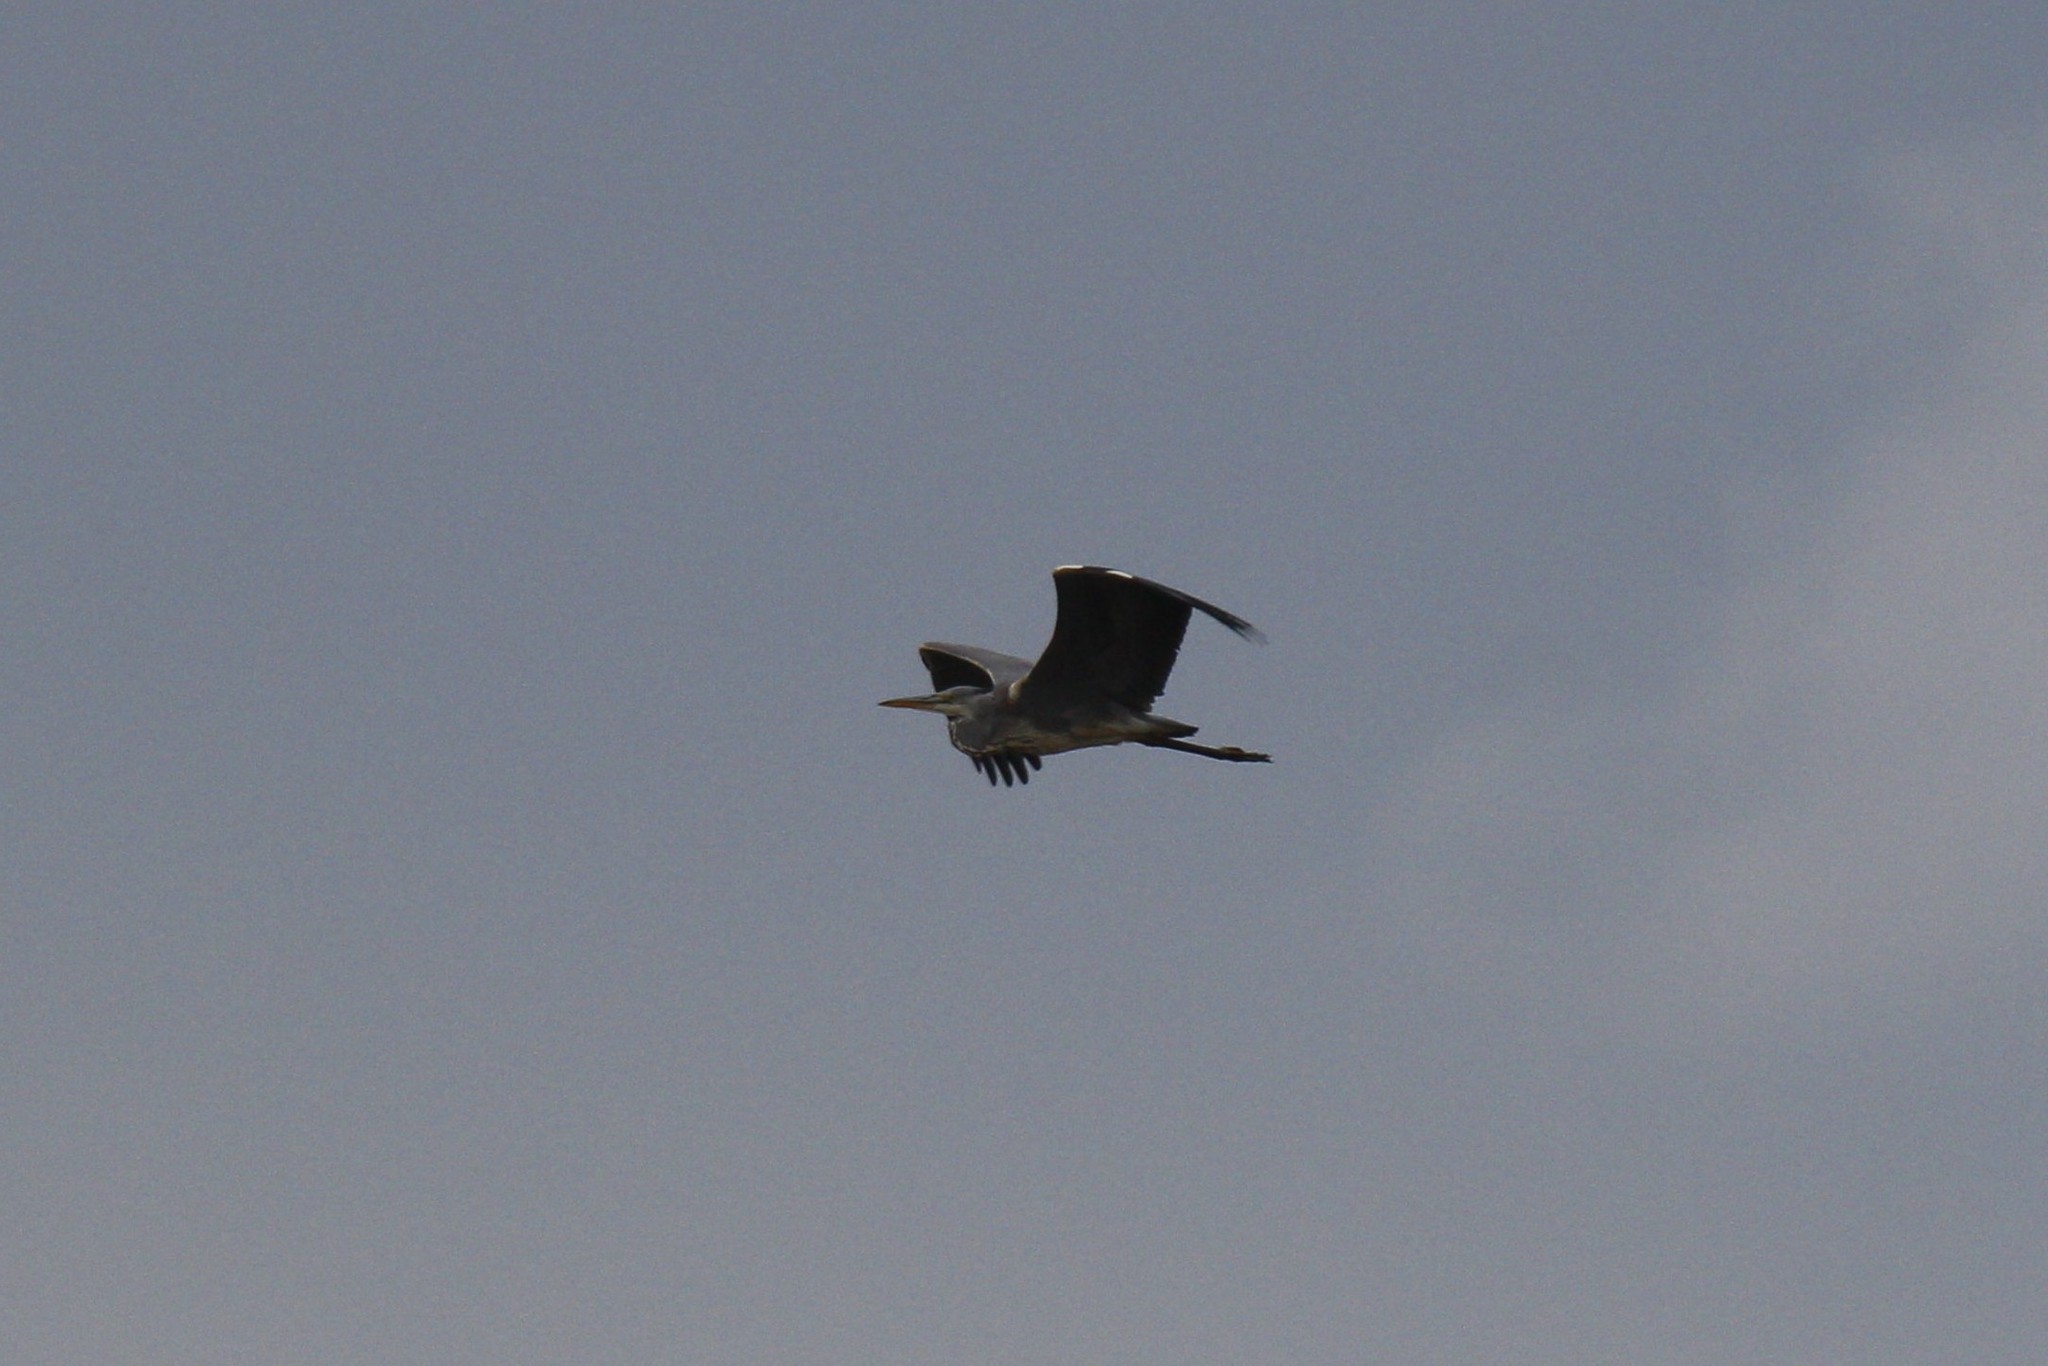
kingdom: Animalia
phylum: Chordata
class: Aves
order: Pelecaniformes
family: Ardeidae
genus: Ardea
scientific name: Ardea cinerea
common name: Grey heron
